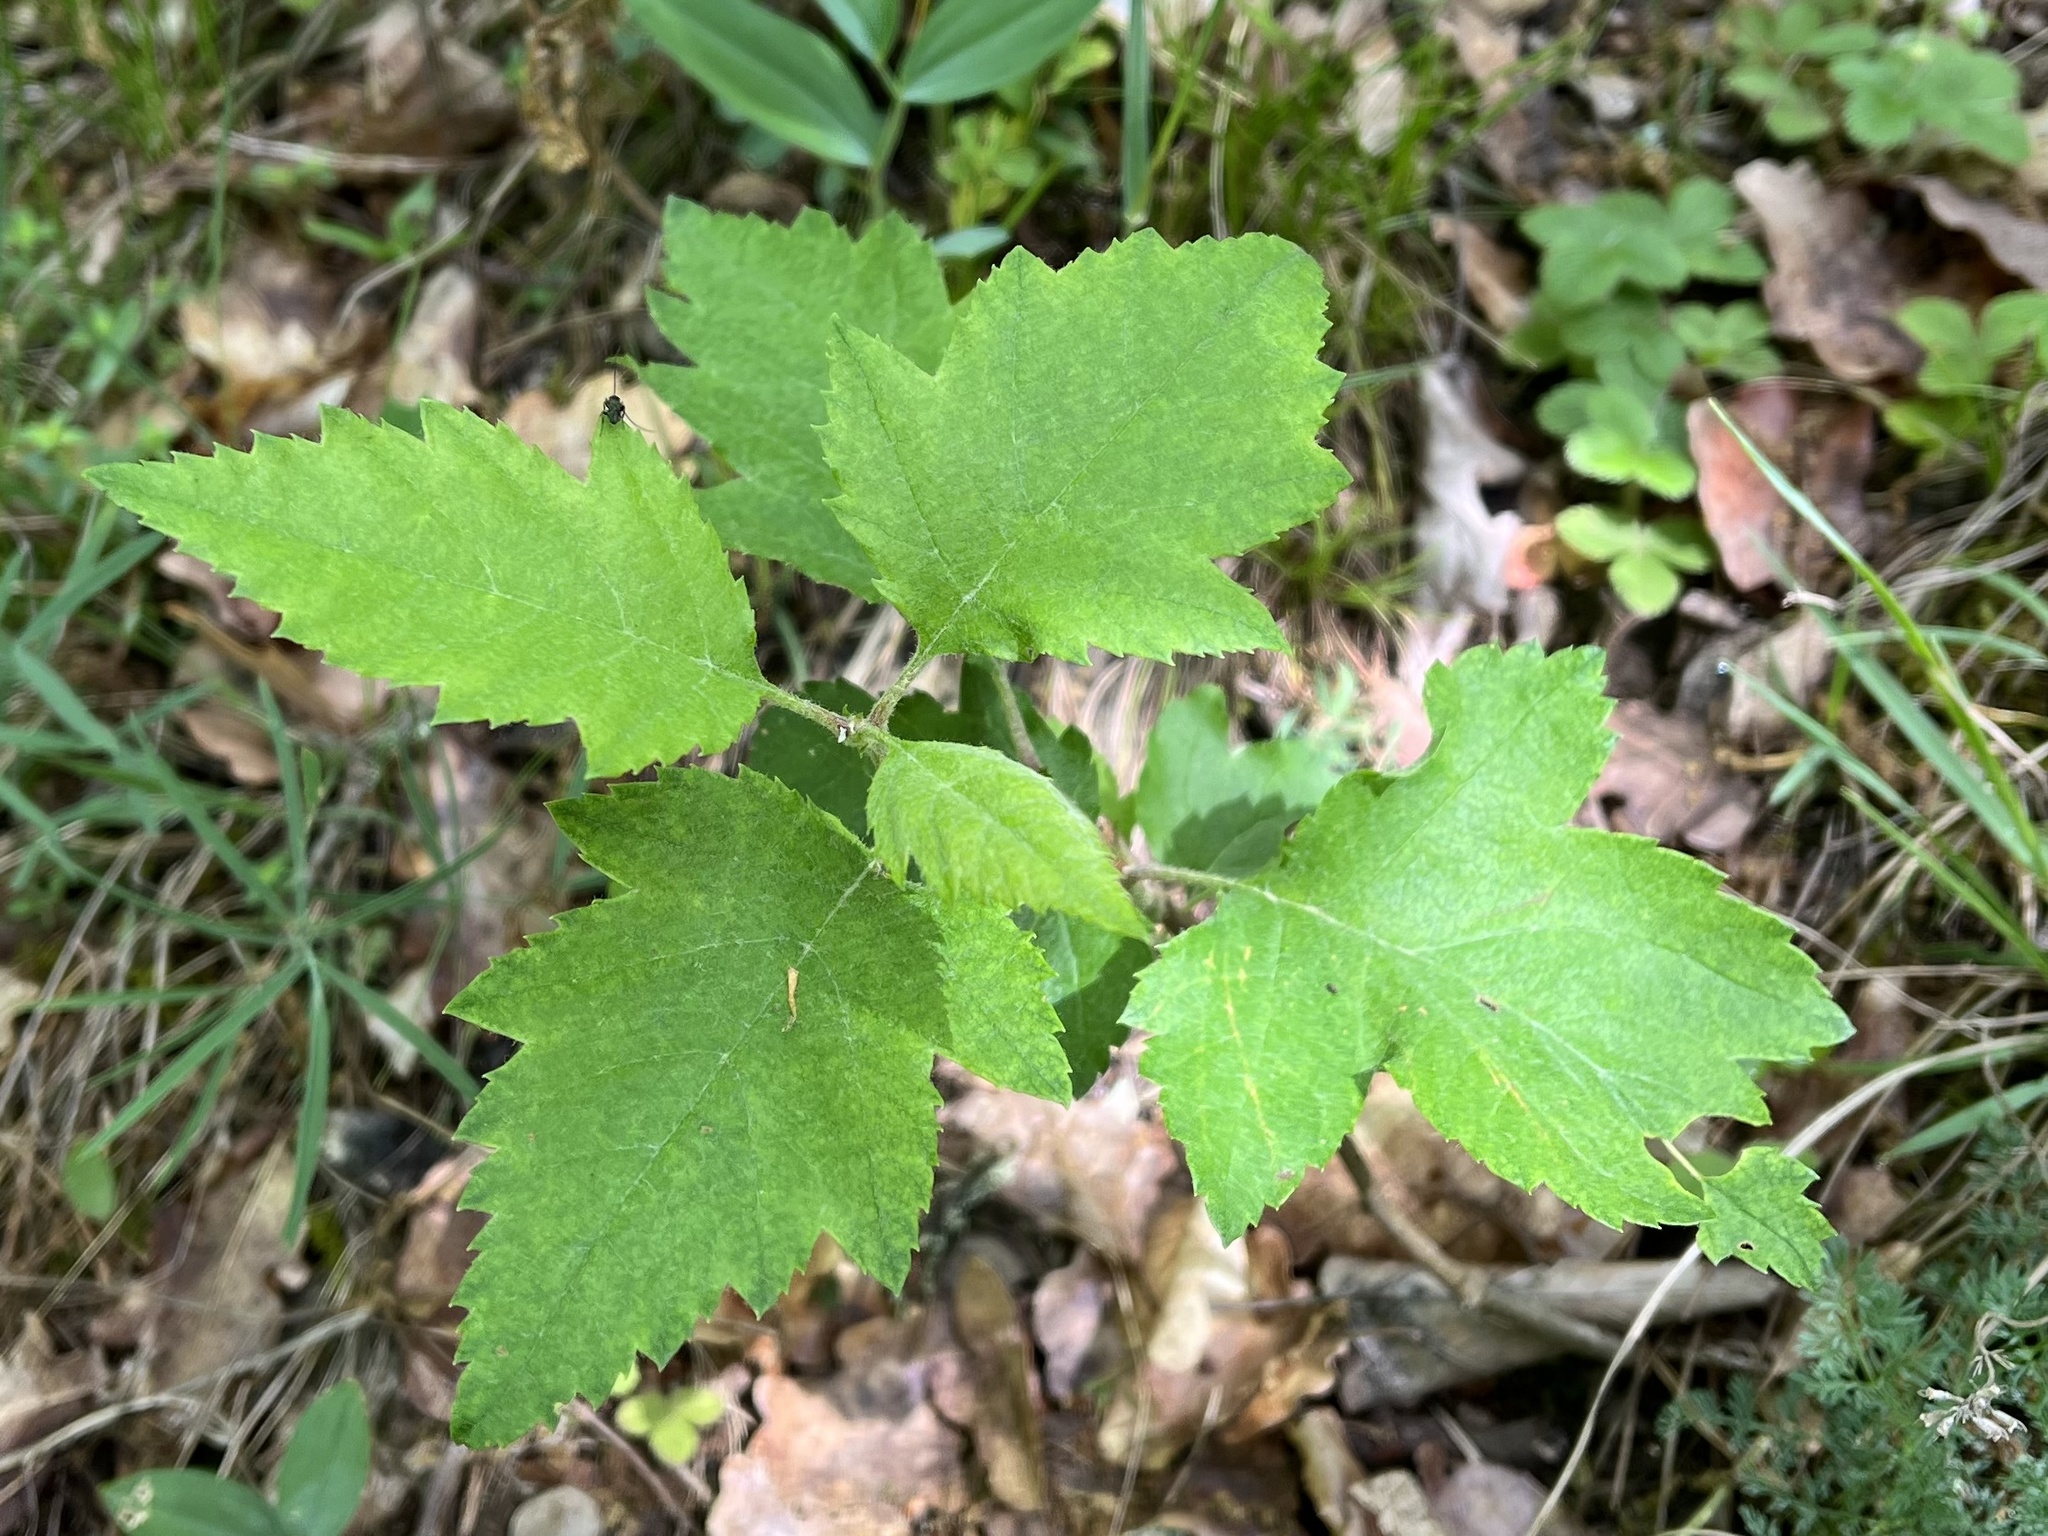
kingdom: Plantae
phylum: Tracheophyta
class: Magnoliopsida
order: Rosales
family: Rosaceae
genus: Torminalis
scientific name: Torminalis glaberrima
